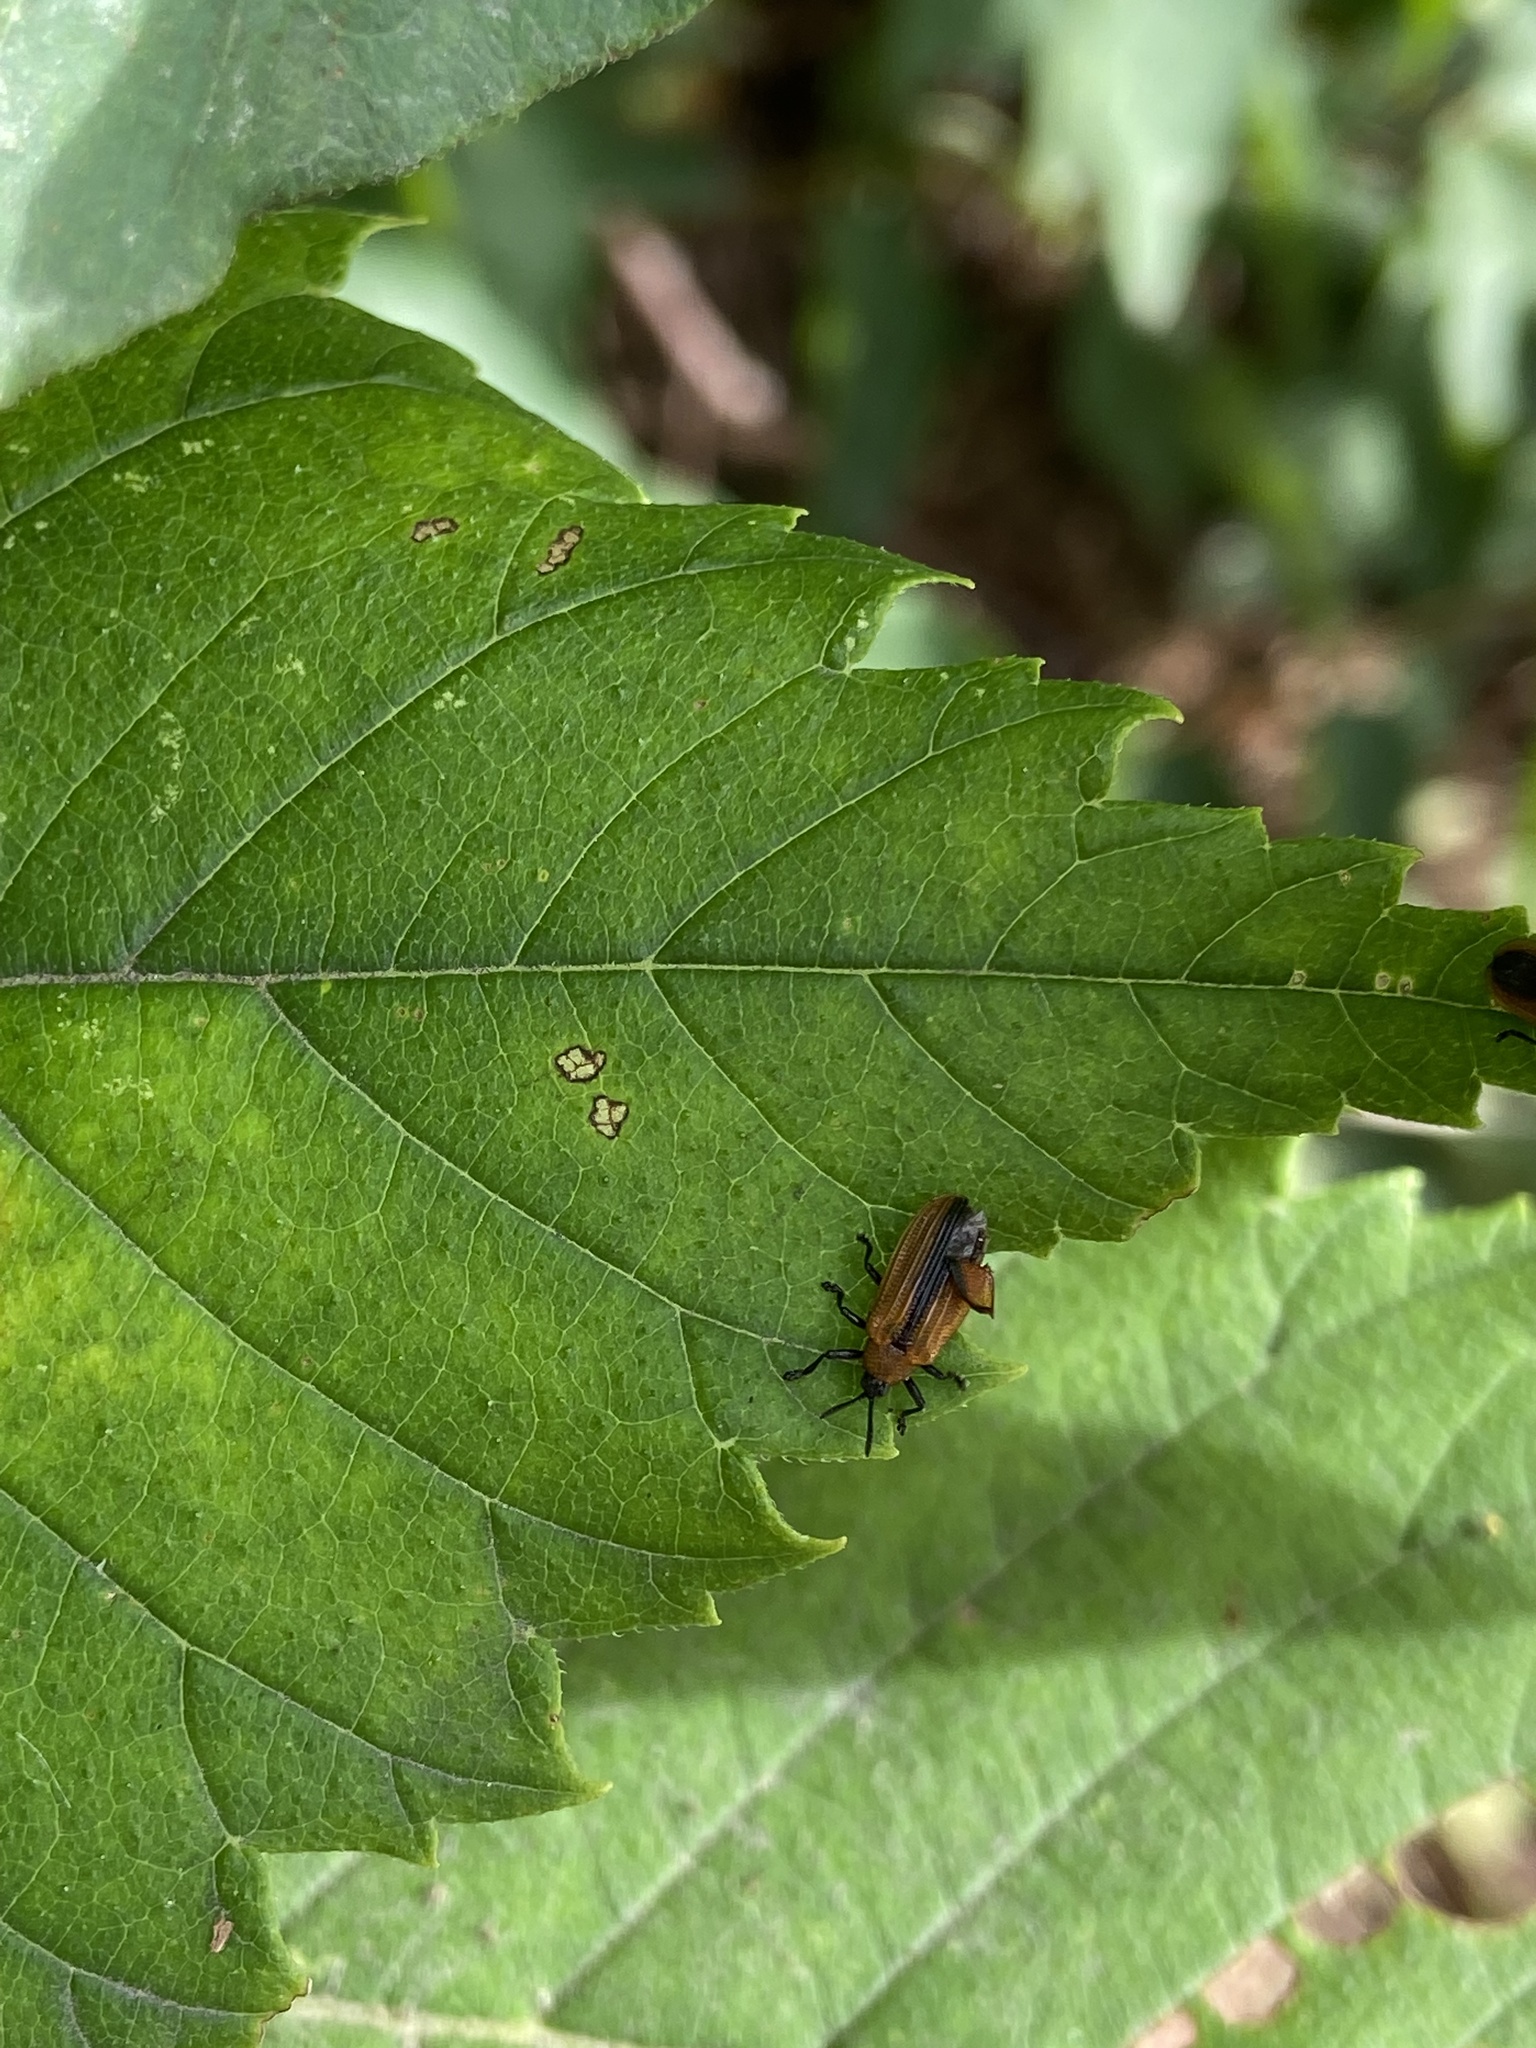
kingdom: Animalia
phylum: Arthropoda
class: Insecta
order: Coleoptera
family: Chrysomelidae
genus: Odontota
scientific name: Odontota dorsalis
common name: Locust leaf-miner beetle
